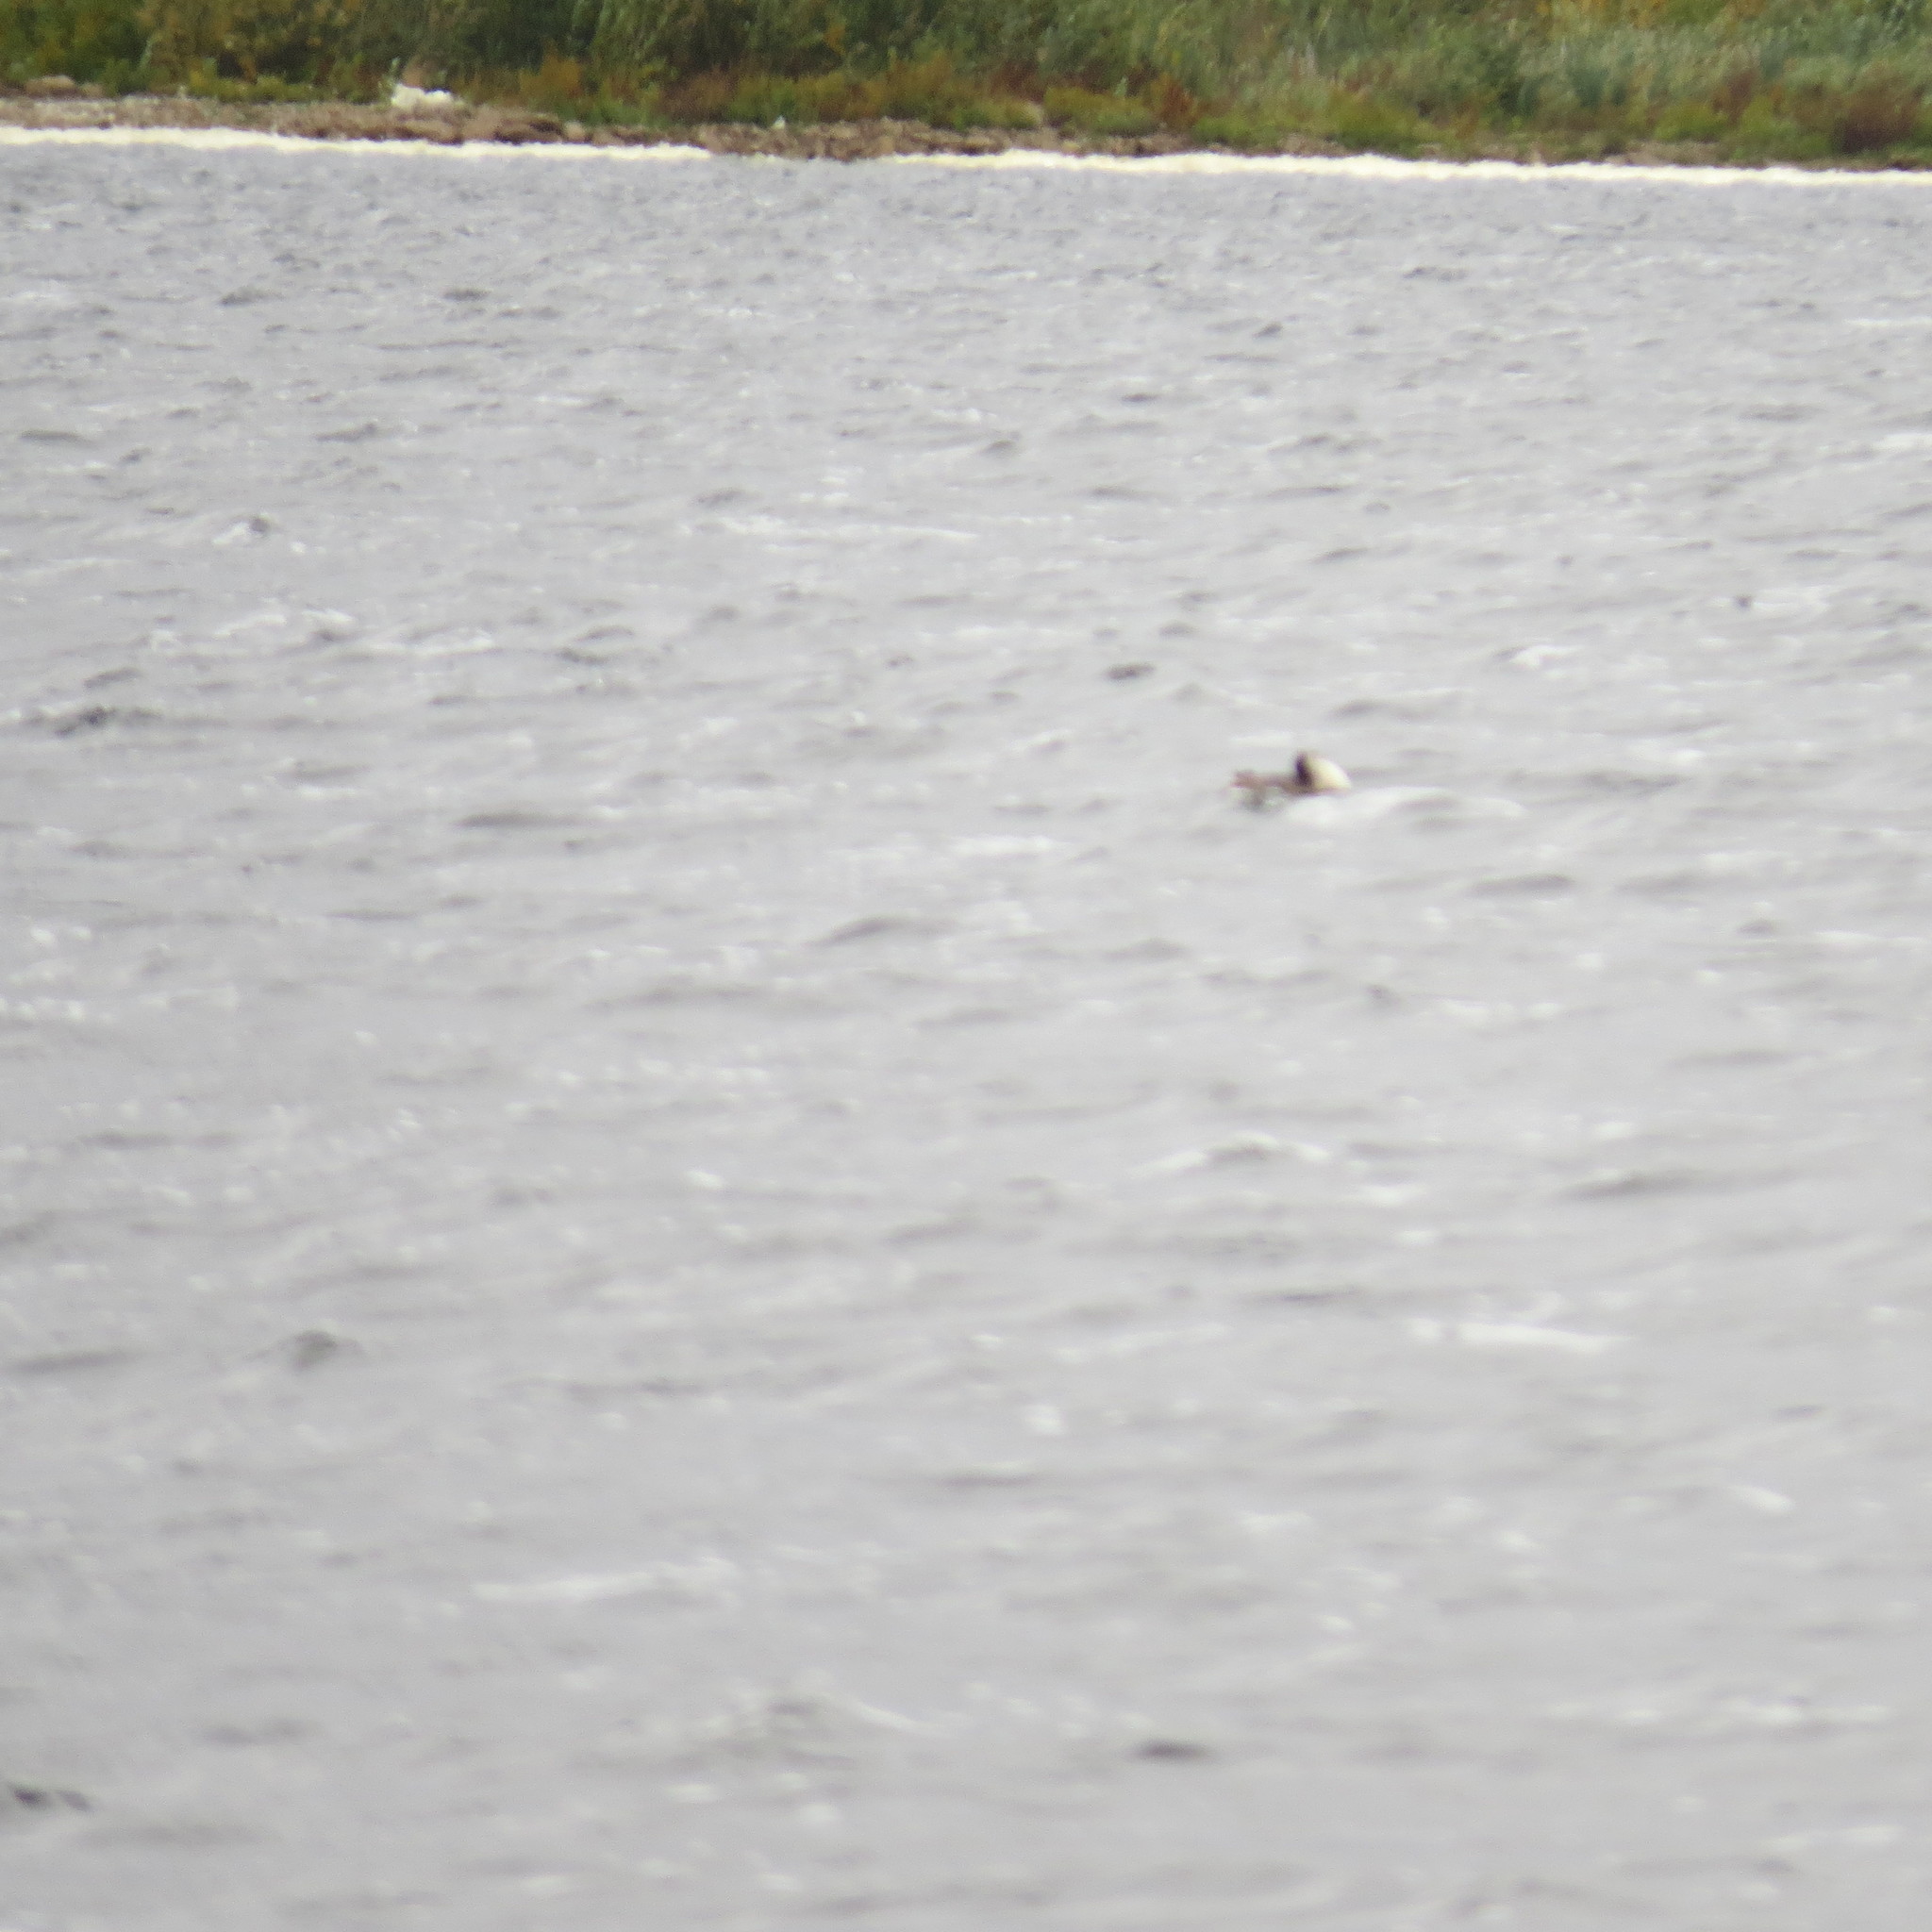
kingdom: Animalia
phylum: Chordata
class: Aves
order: Podicipediformes
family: Podicipedidae
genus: Podiceps
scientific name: Podiceps cristatus
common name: Great crested grebe
